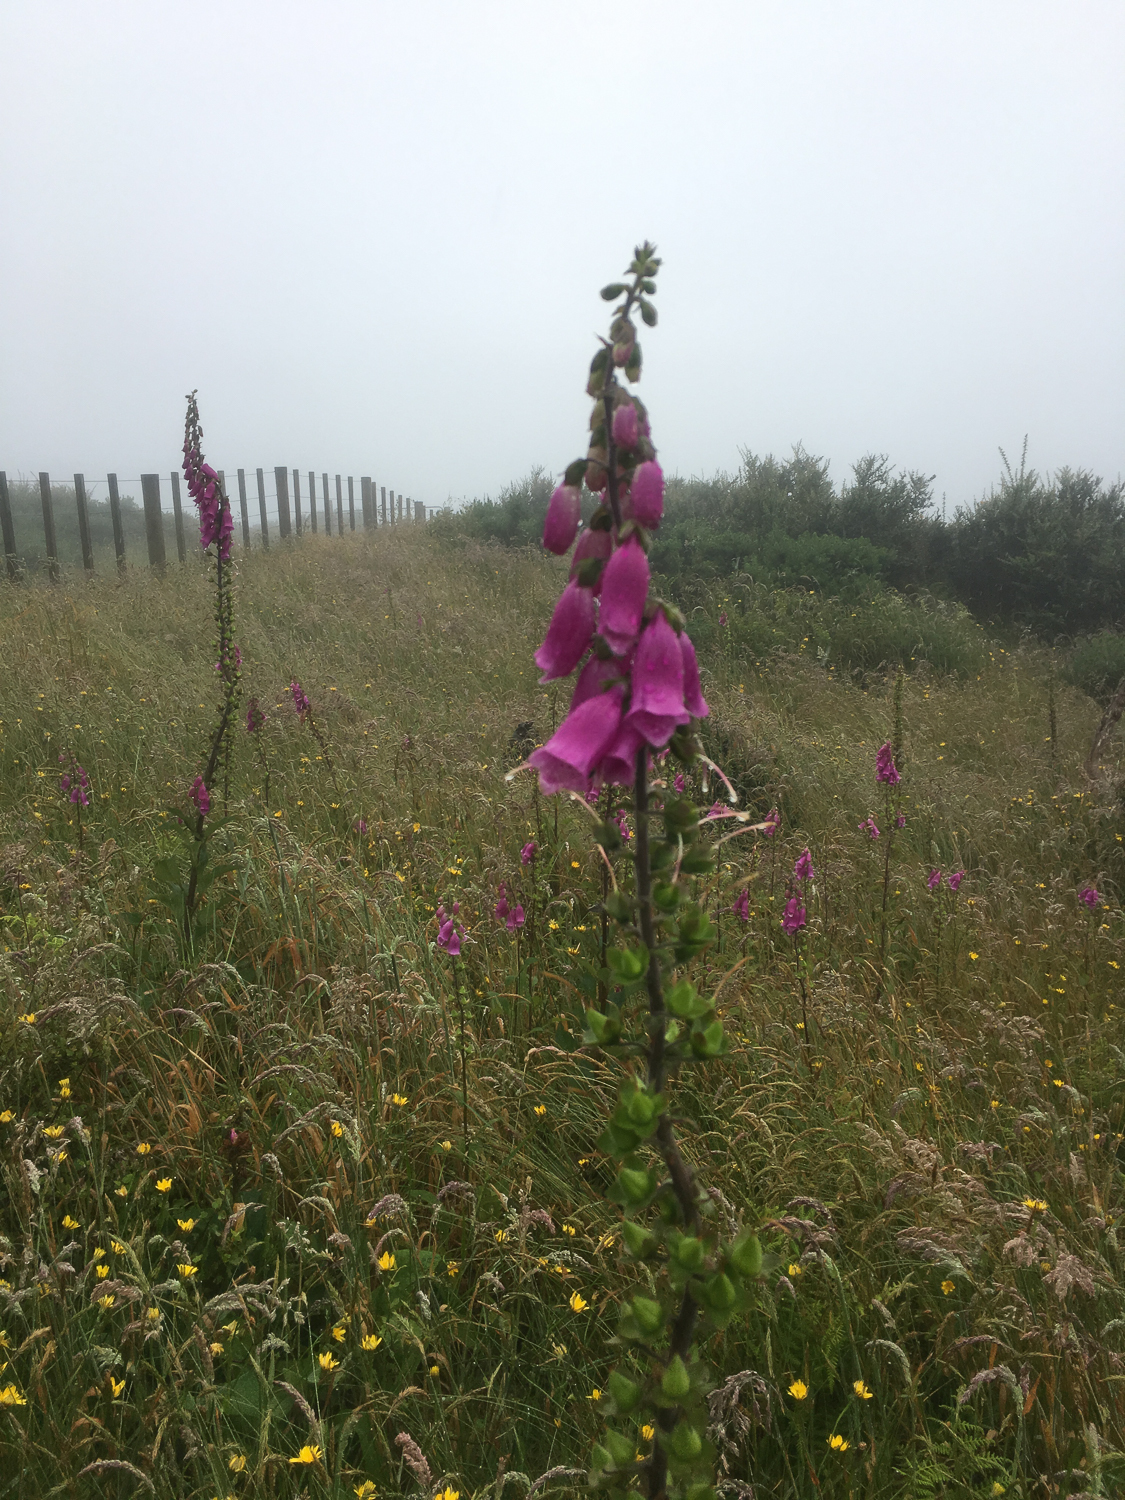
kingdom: Plantae
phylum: Tracheophyta
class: Magnoliopsida
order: Lamiales
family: Plantaginaceae
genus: Digitalis
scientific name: Digitalis purpurea
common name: Foxglove
